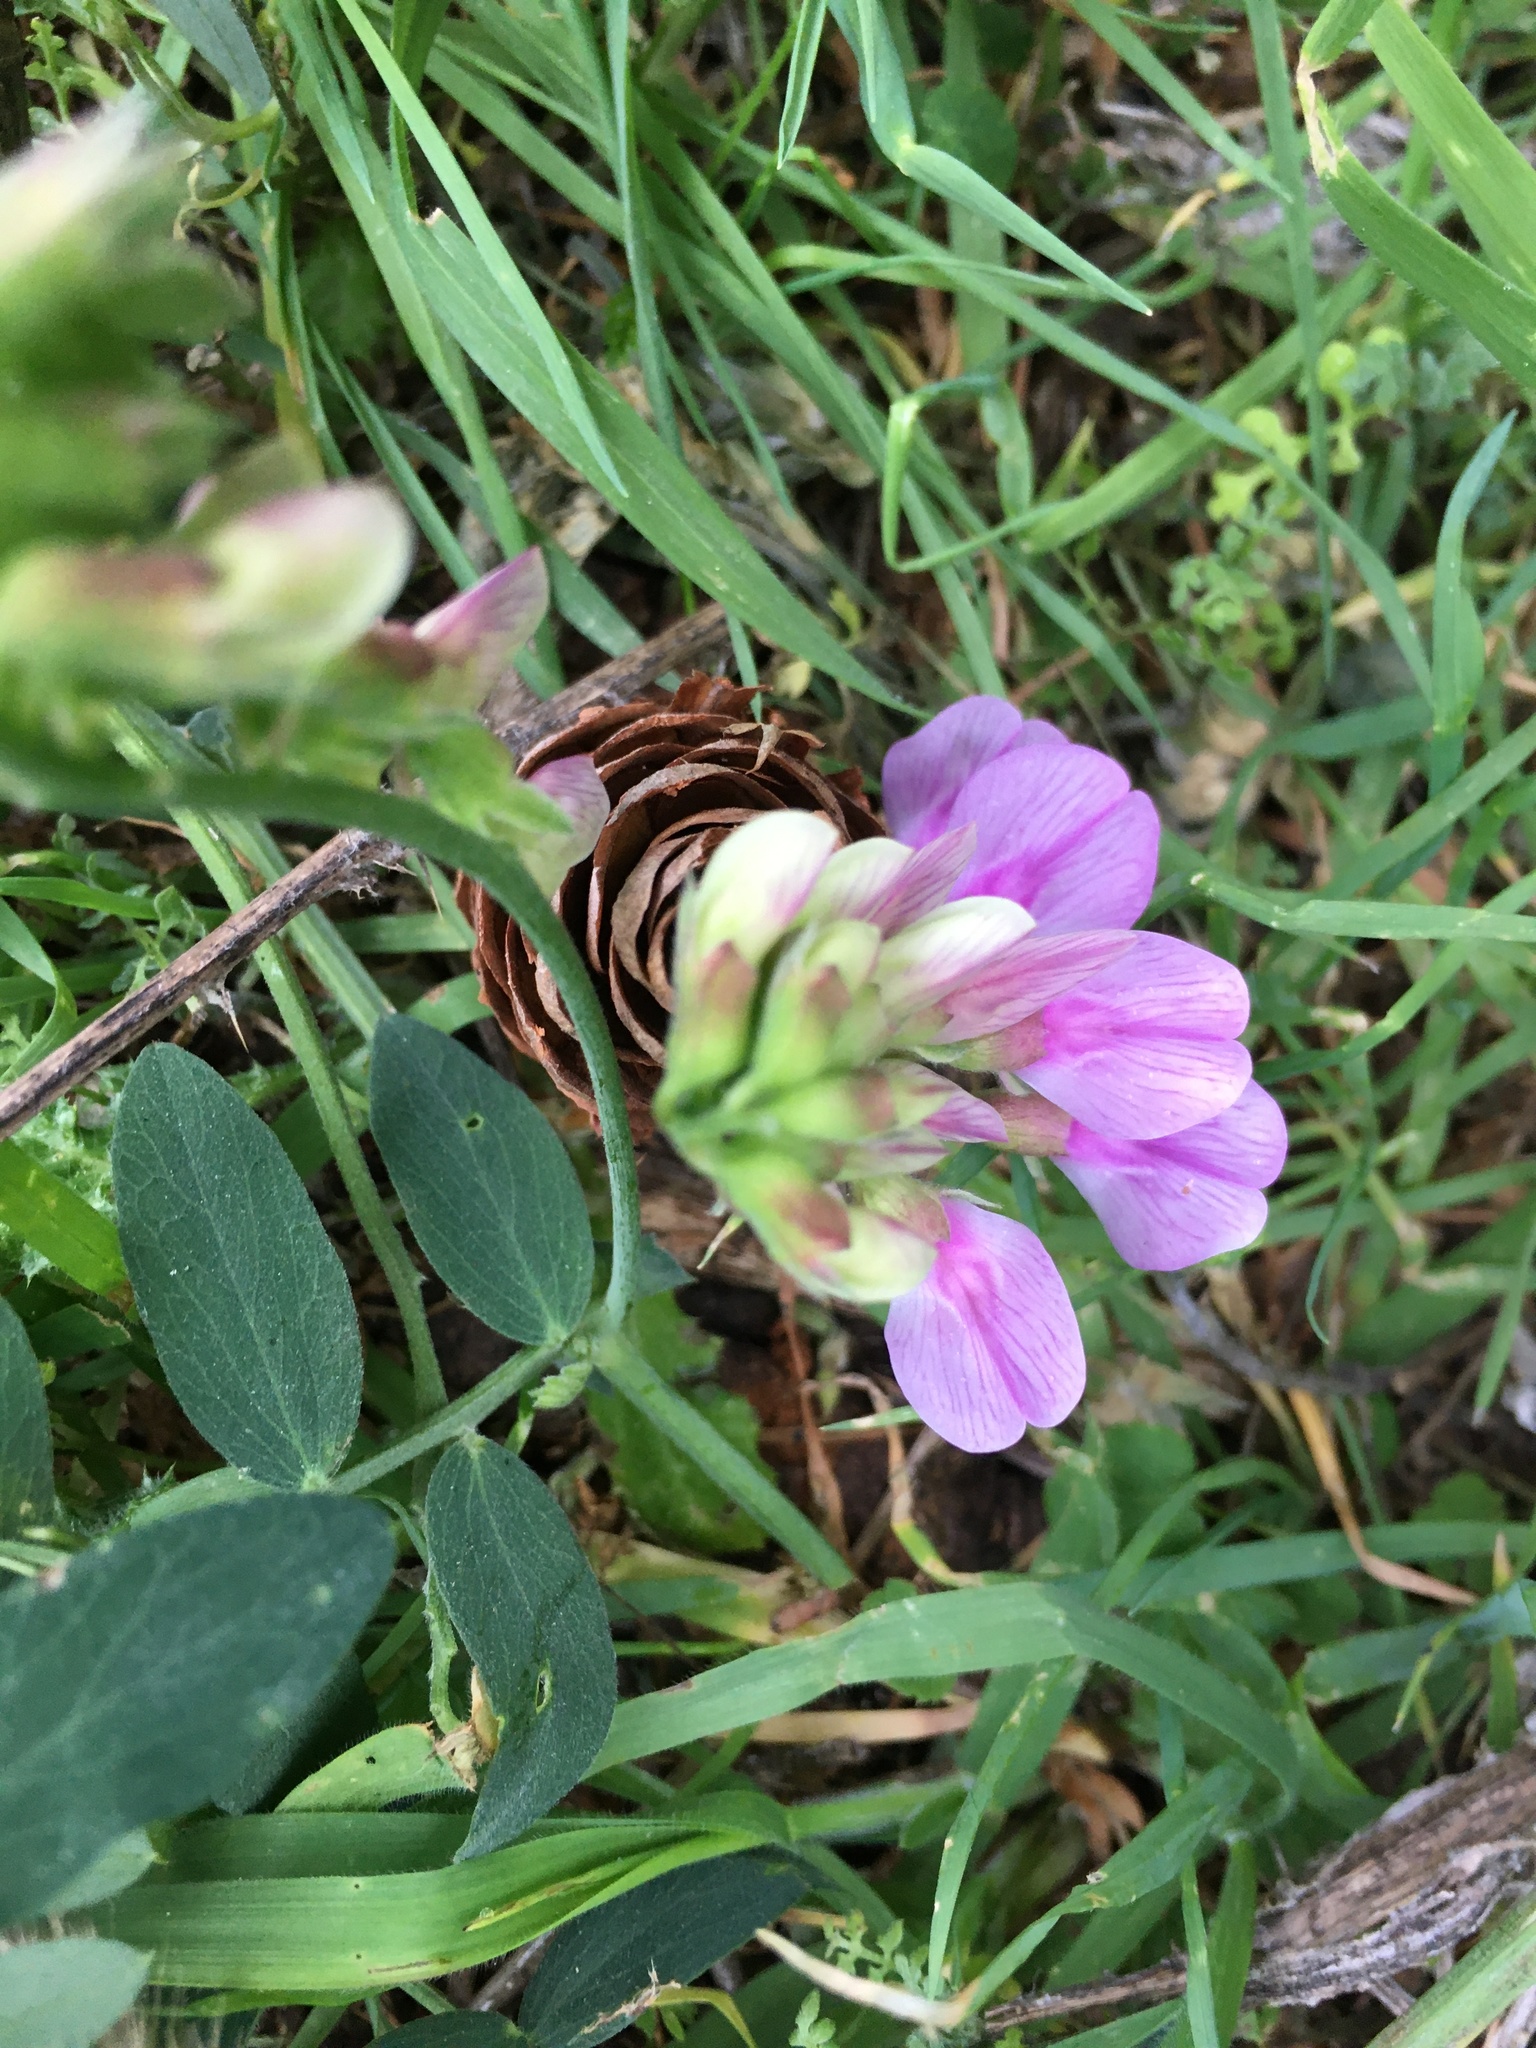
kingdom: Plantae
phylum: Tracheophyta
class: Magnoliopsida
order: Fabales
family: Fabaceae
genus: Lathyrus
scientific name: Lathyrus vestitus
